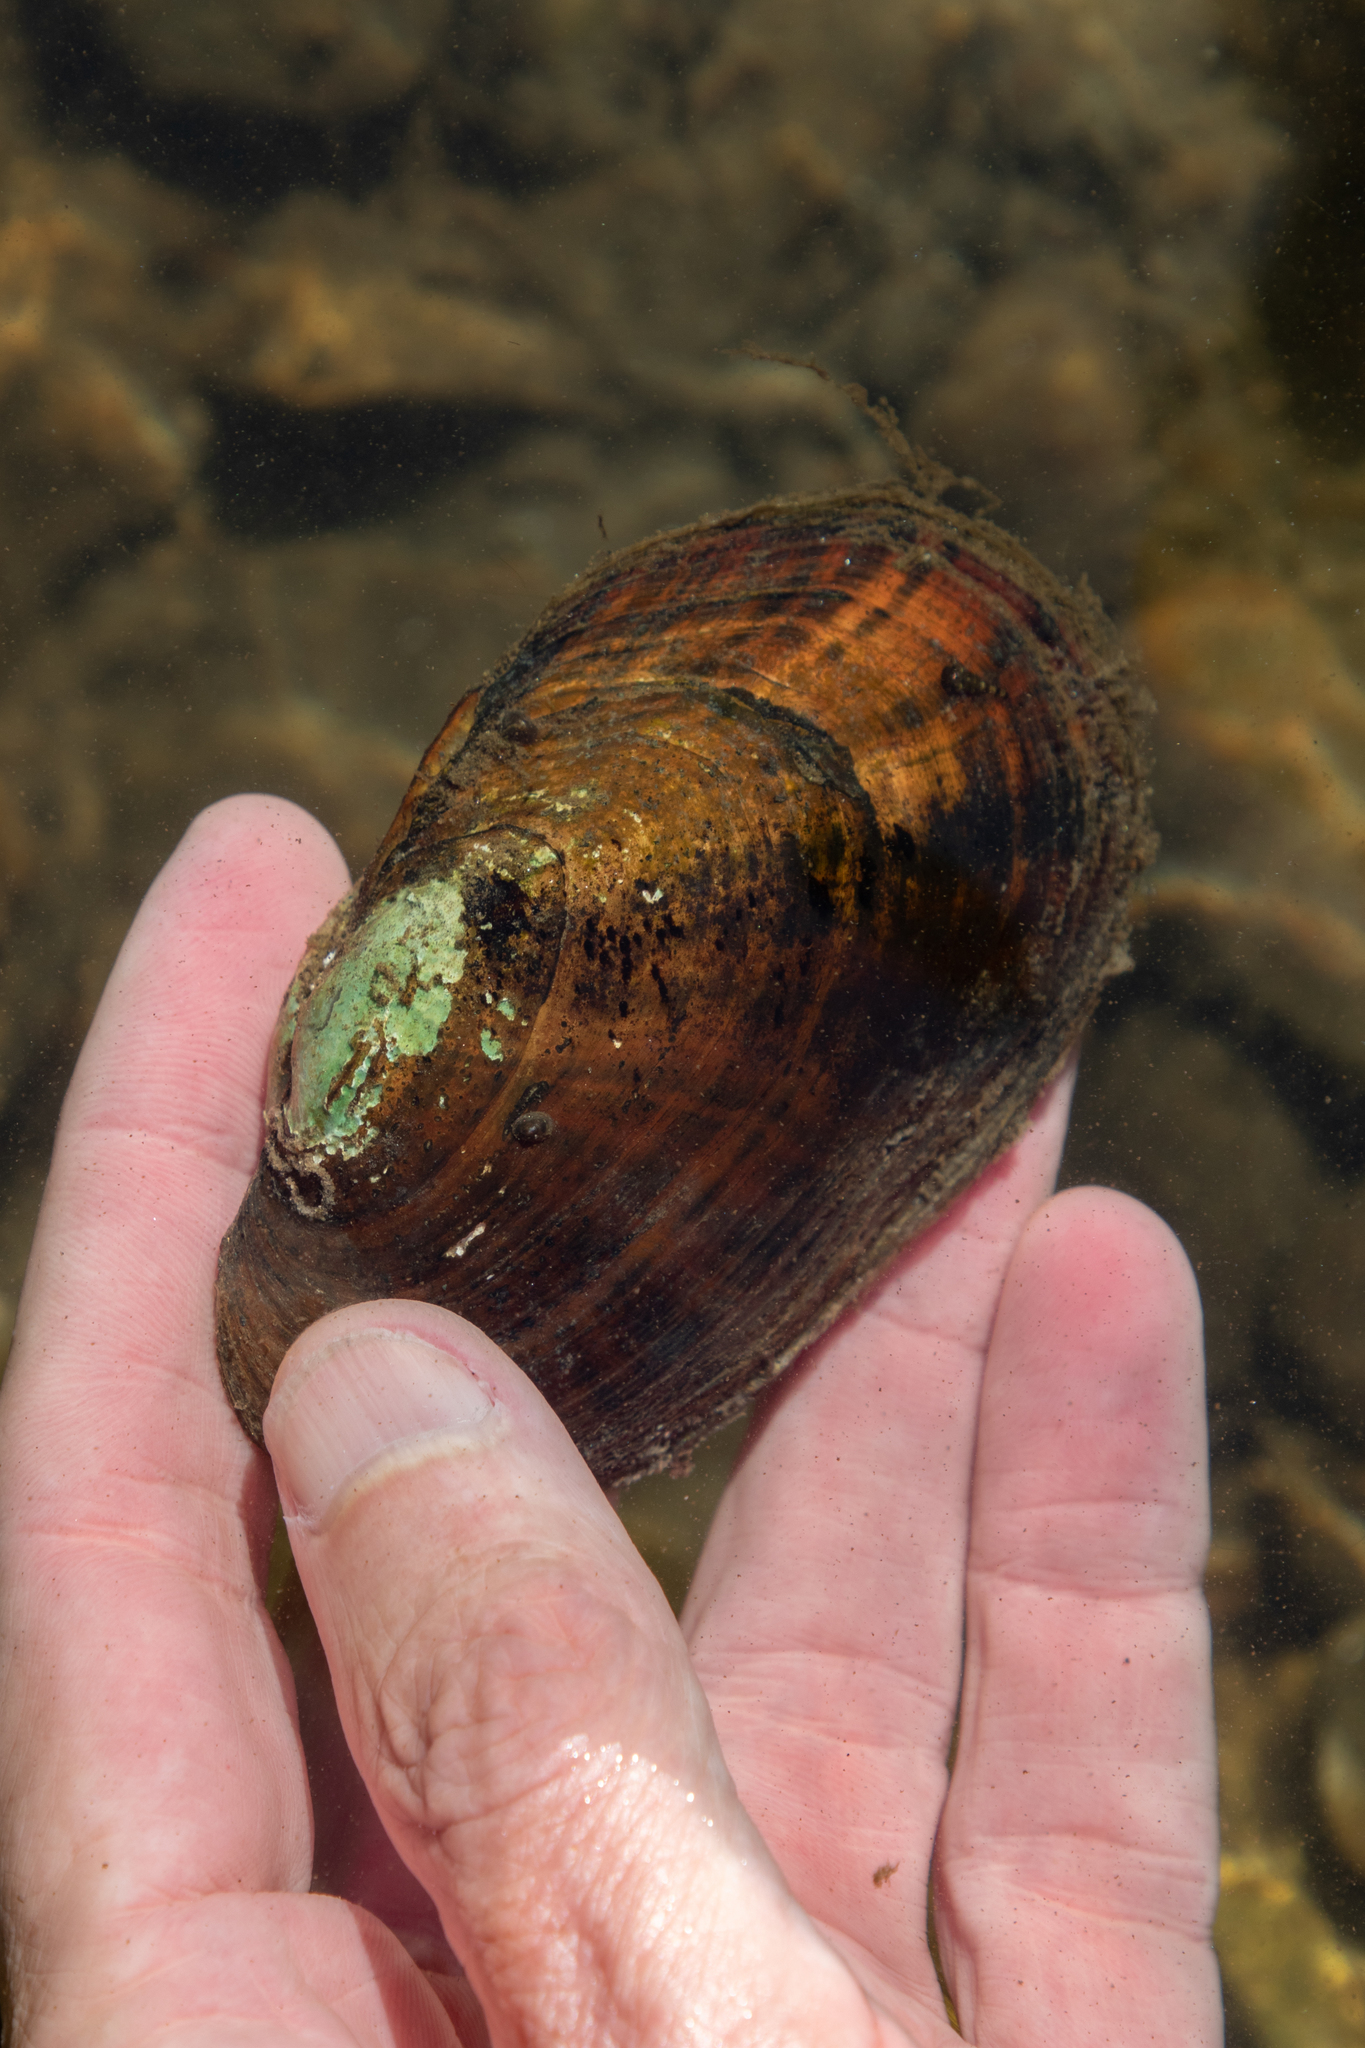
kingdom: Animalia
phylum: Mollusca
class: Bivalvia
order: Unionida
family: Unionidae
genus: Lampsilis
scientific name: Lampsilis radiata
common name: Eastern lampmussel
